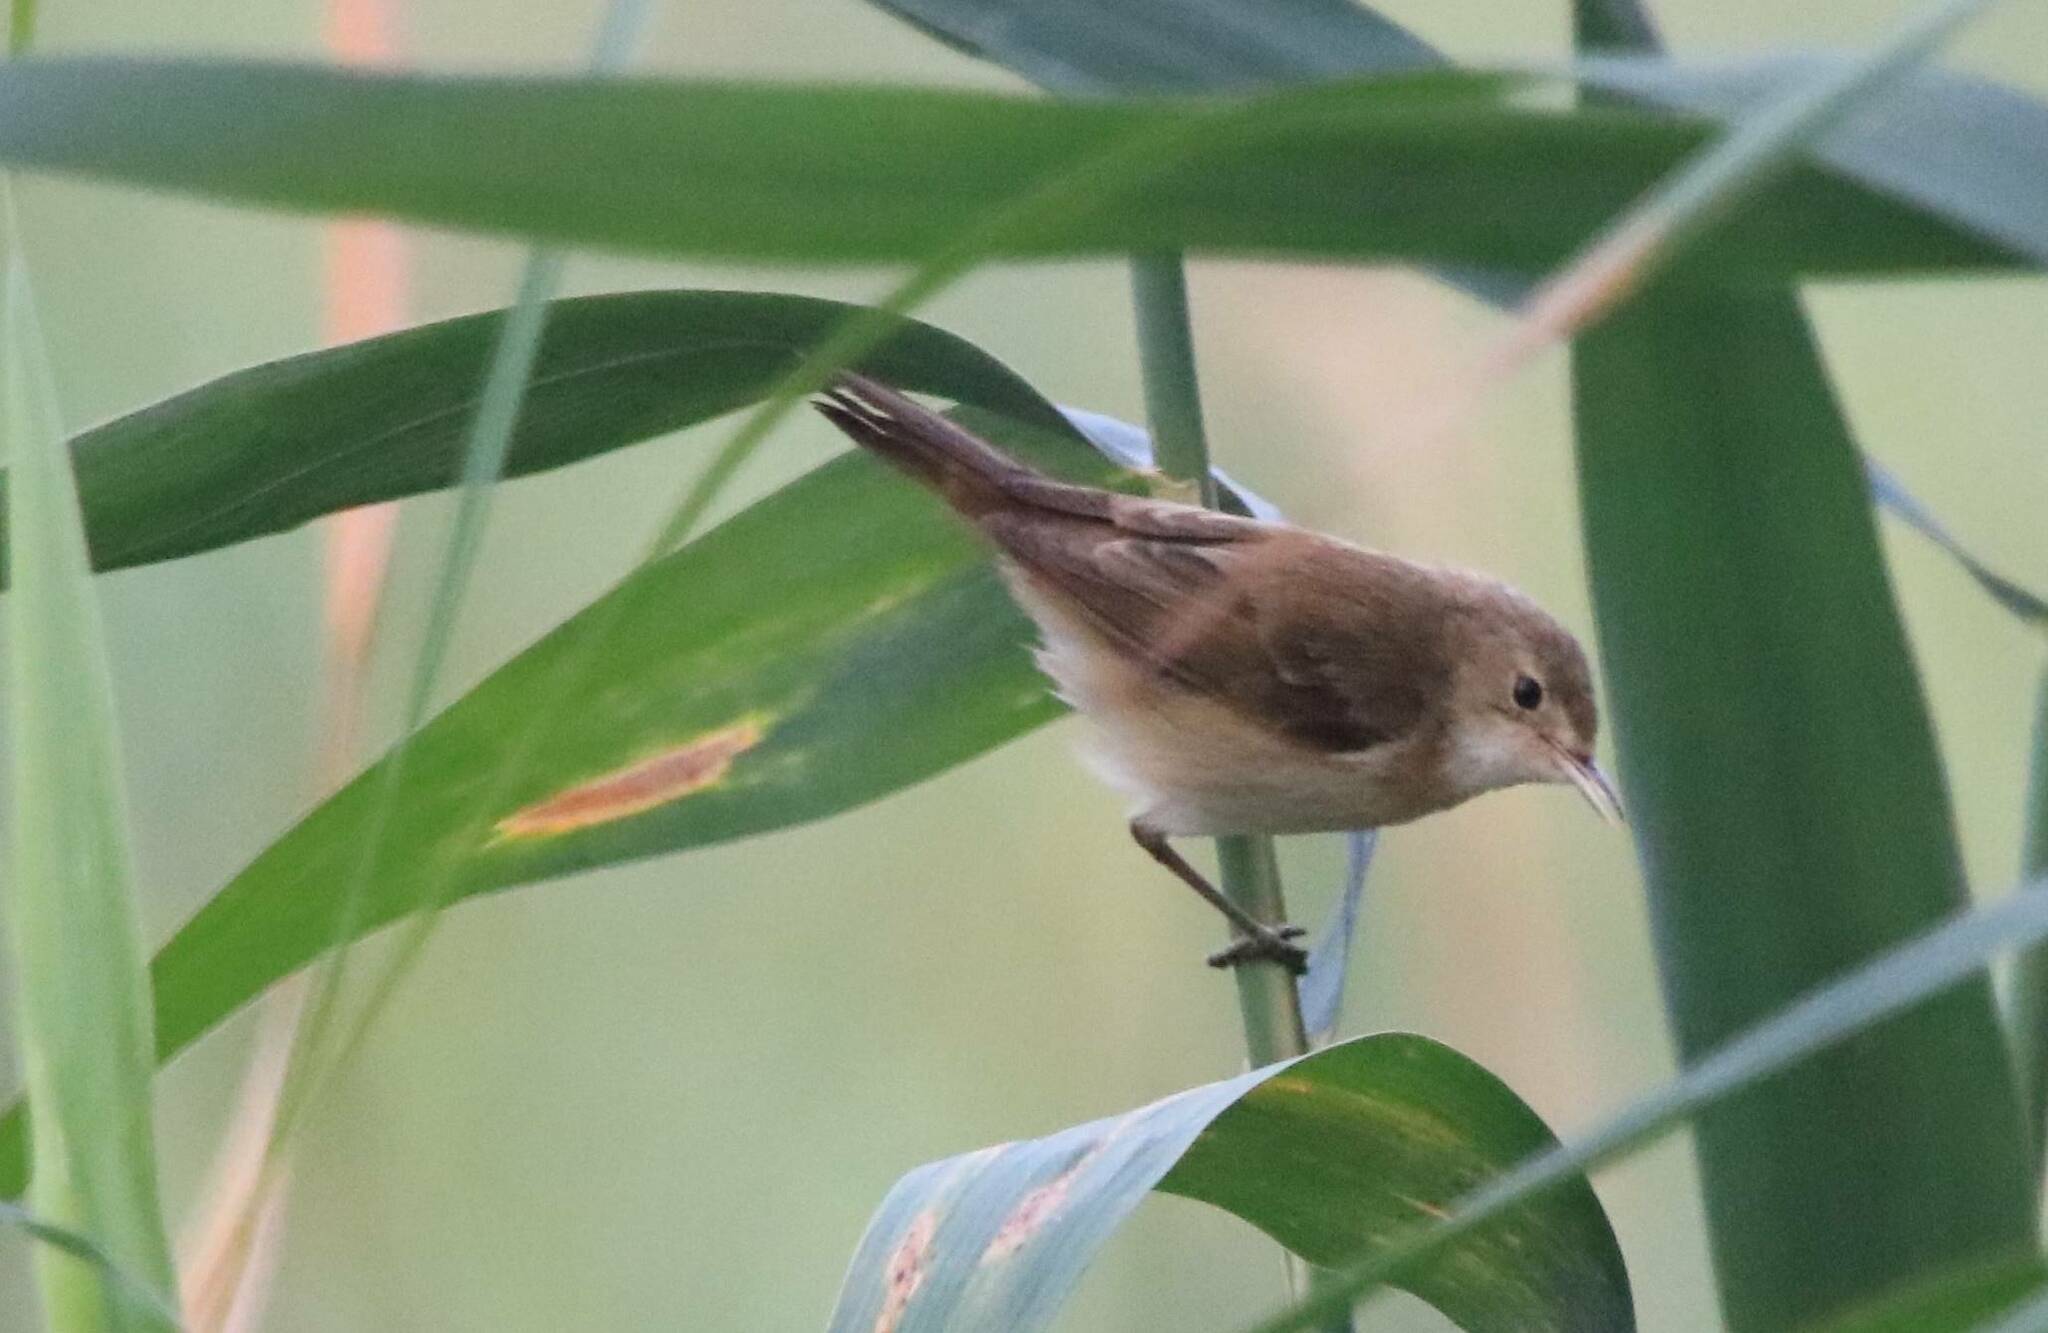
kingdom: Animalia
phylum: Chordata
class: Aves
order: Passeriformes
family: Acrocephalidae
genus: Acrocephalus
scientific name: Acrocephalus scirpaceus
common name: Eurasian reed warbler
